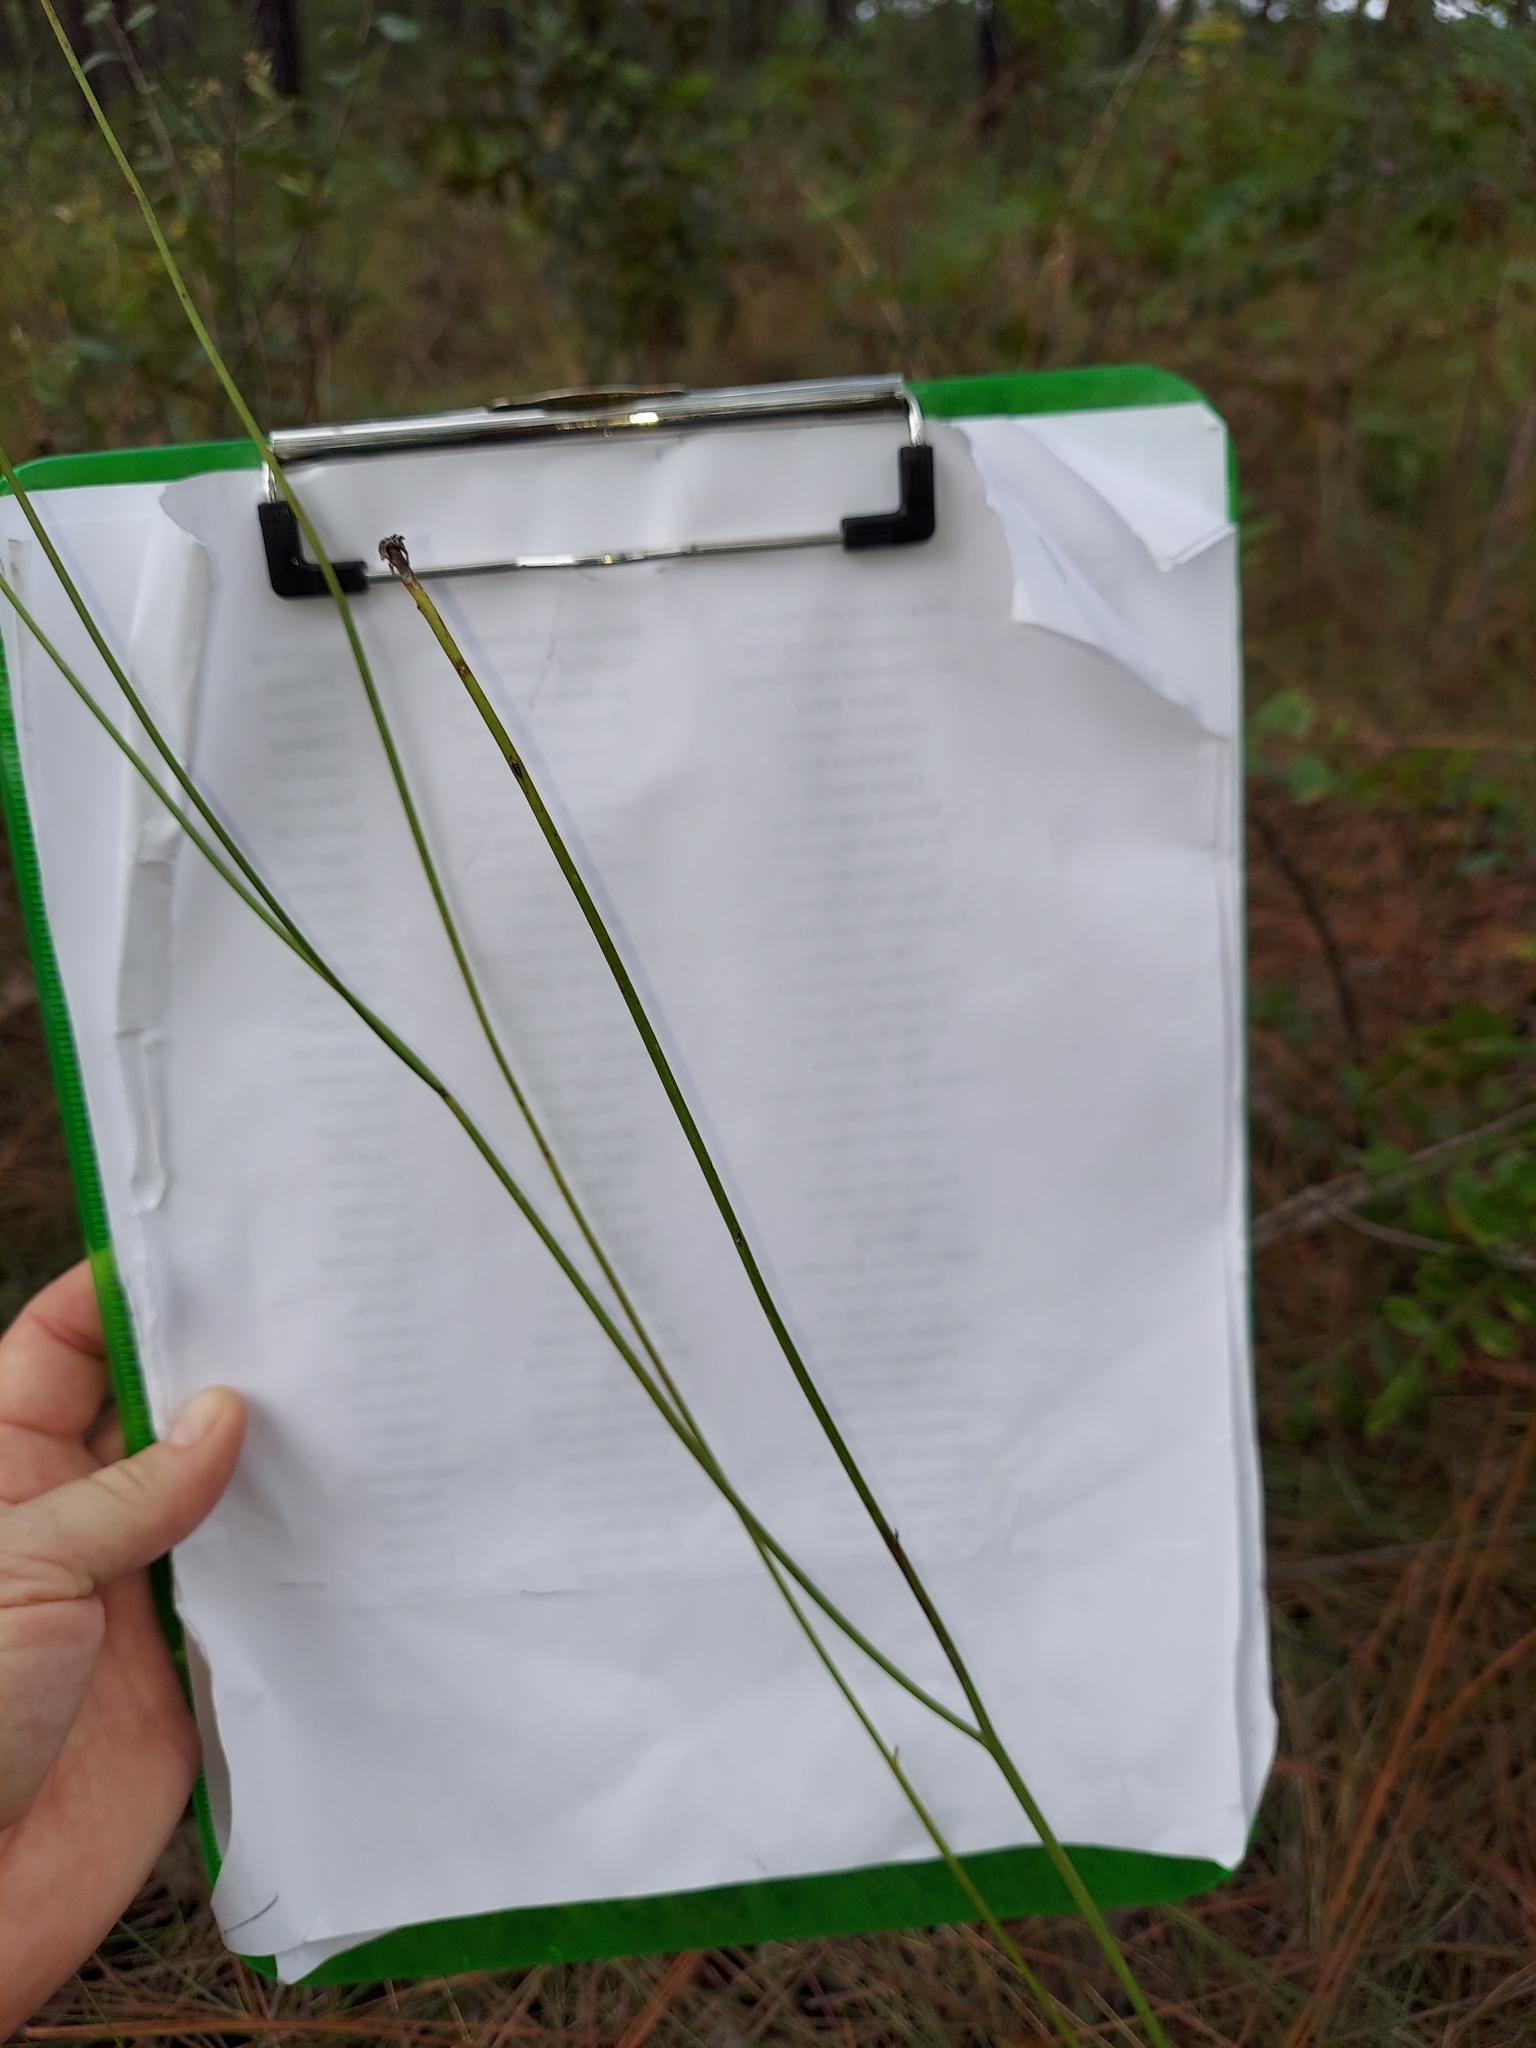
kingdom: Plantae
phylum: Tracheophyta
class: Magnoliopsida
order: Asterales
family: Asteraceae
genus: Lygodesmia
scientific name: Lygodesmia aphylla
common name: Rose-rush
